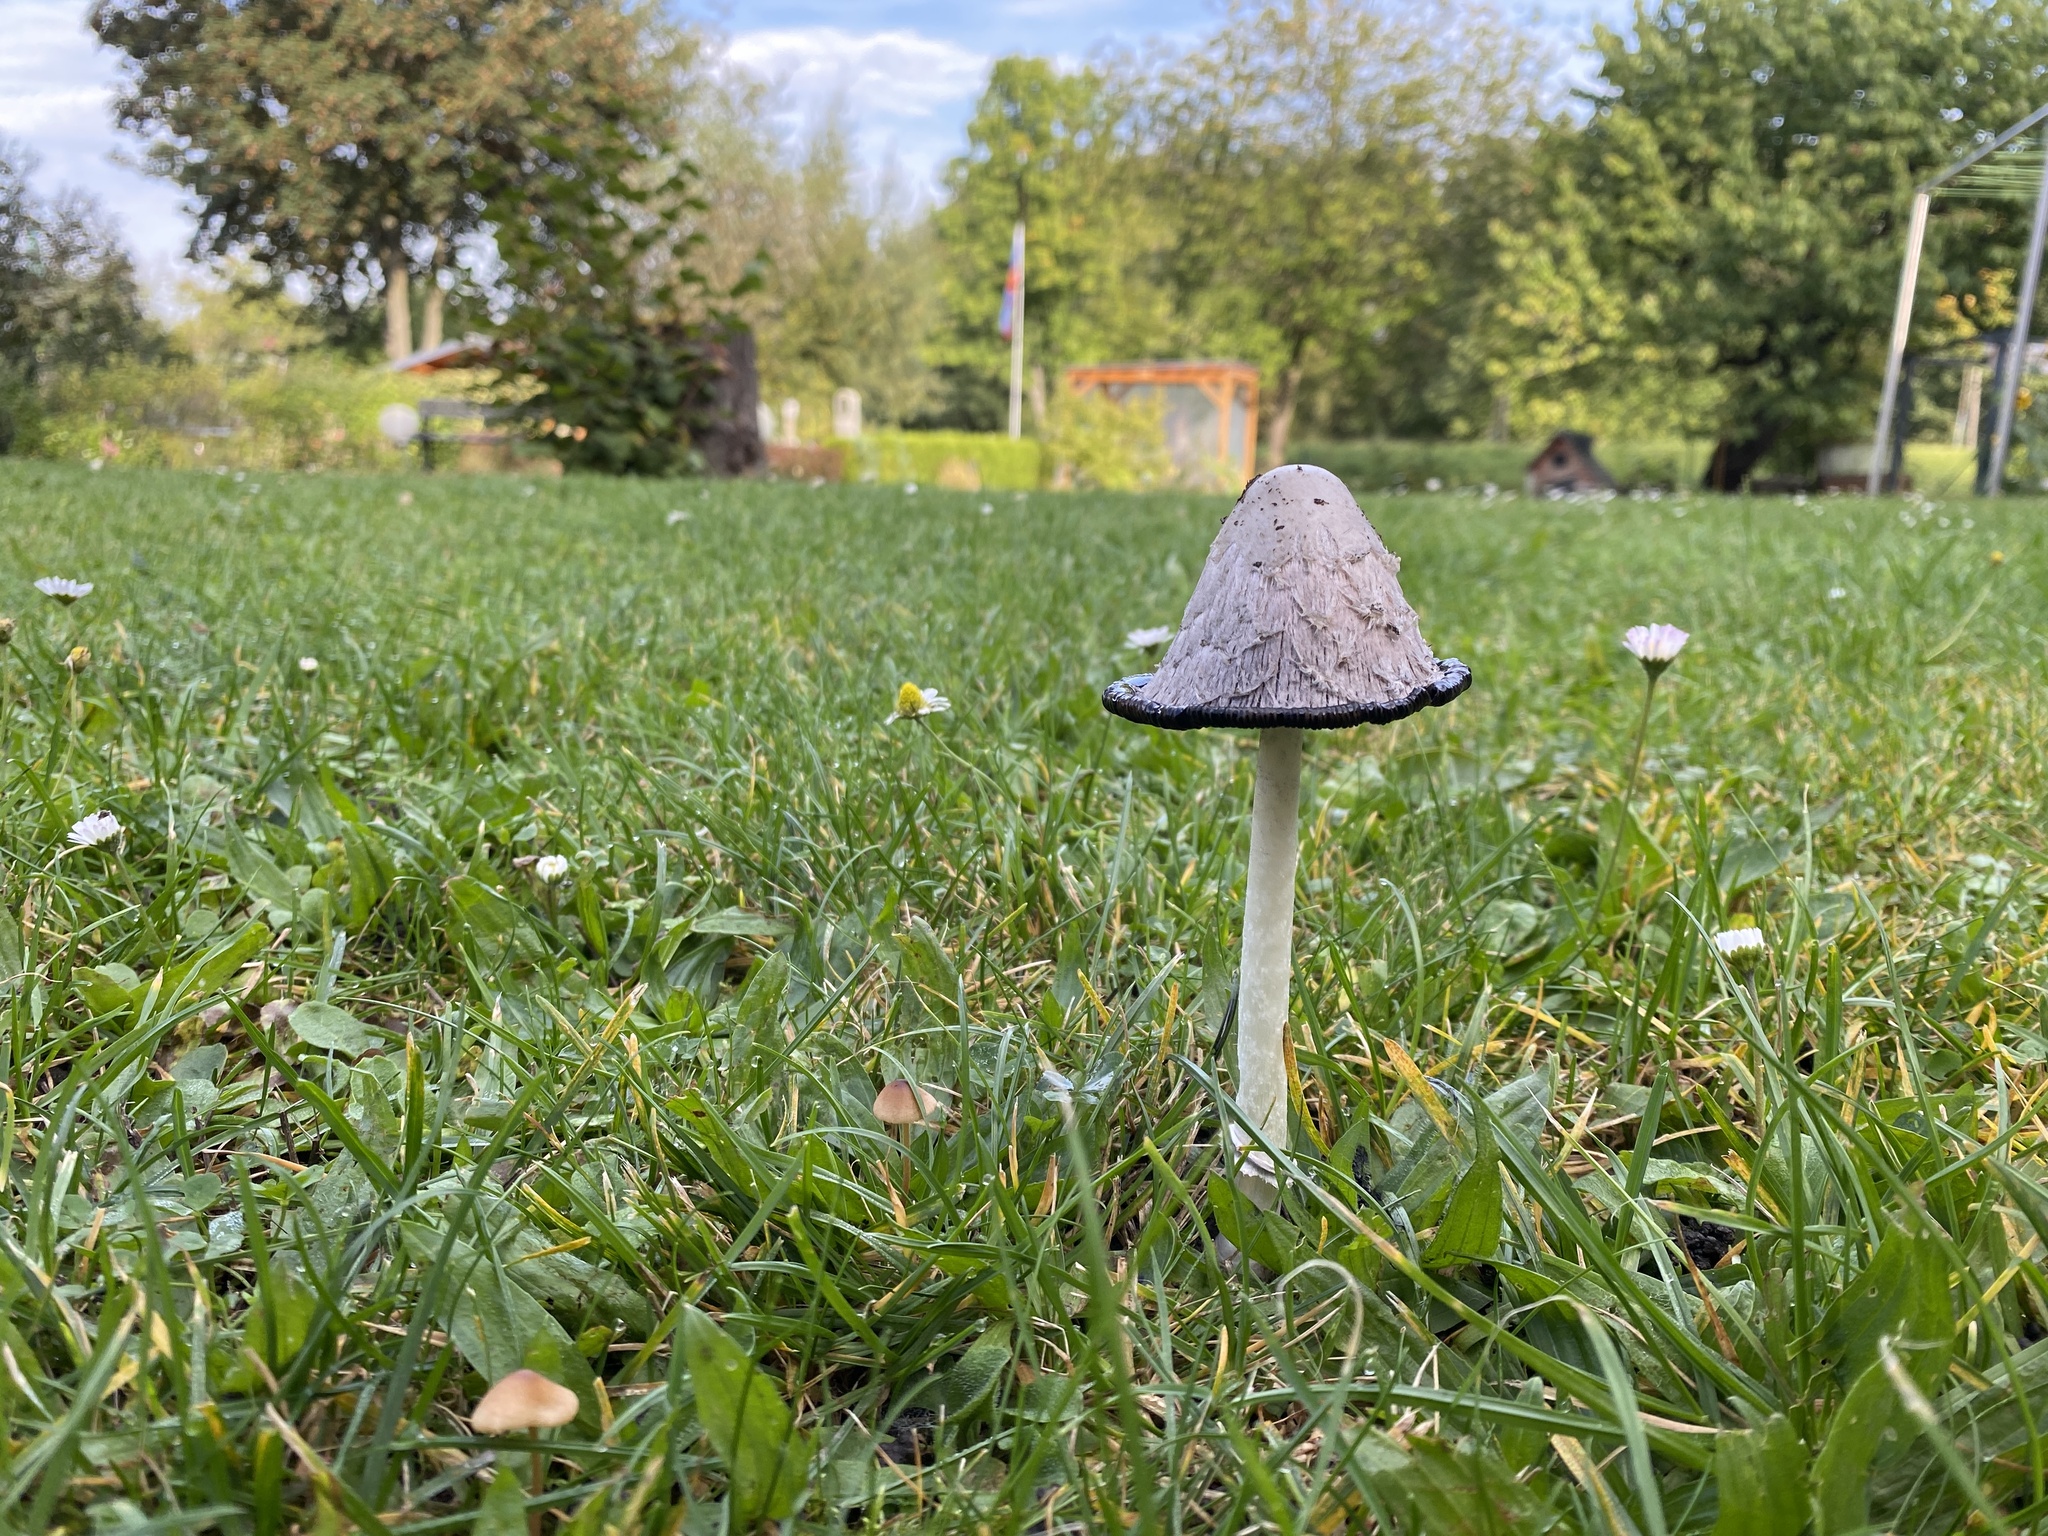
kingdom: Fungi
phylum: Basidiomycota
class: Agaricomycetes
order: Agaricales
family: Agaricaceae
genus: Coprinus
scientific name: Coprinus comatus
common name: Lawyer's wig
